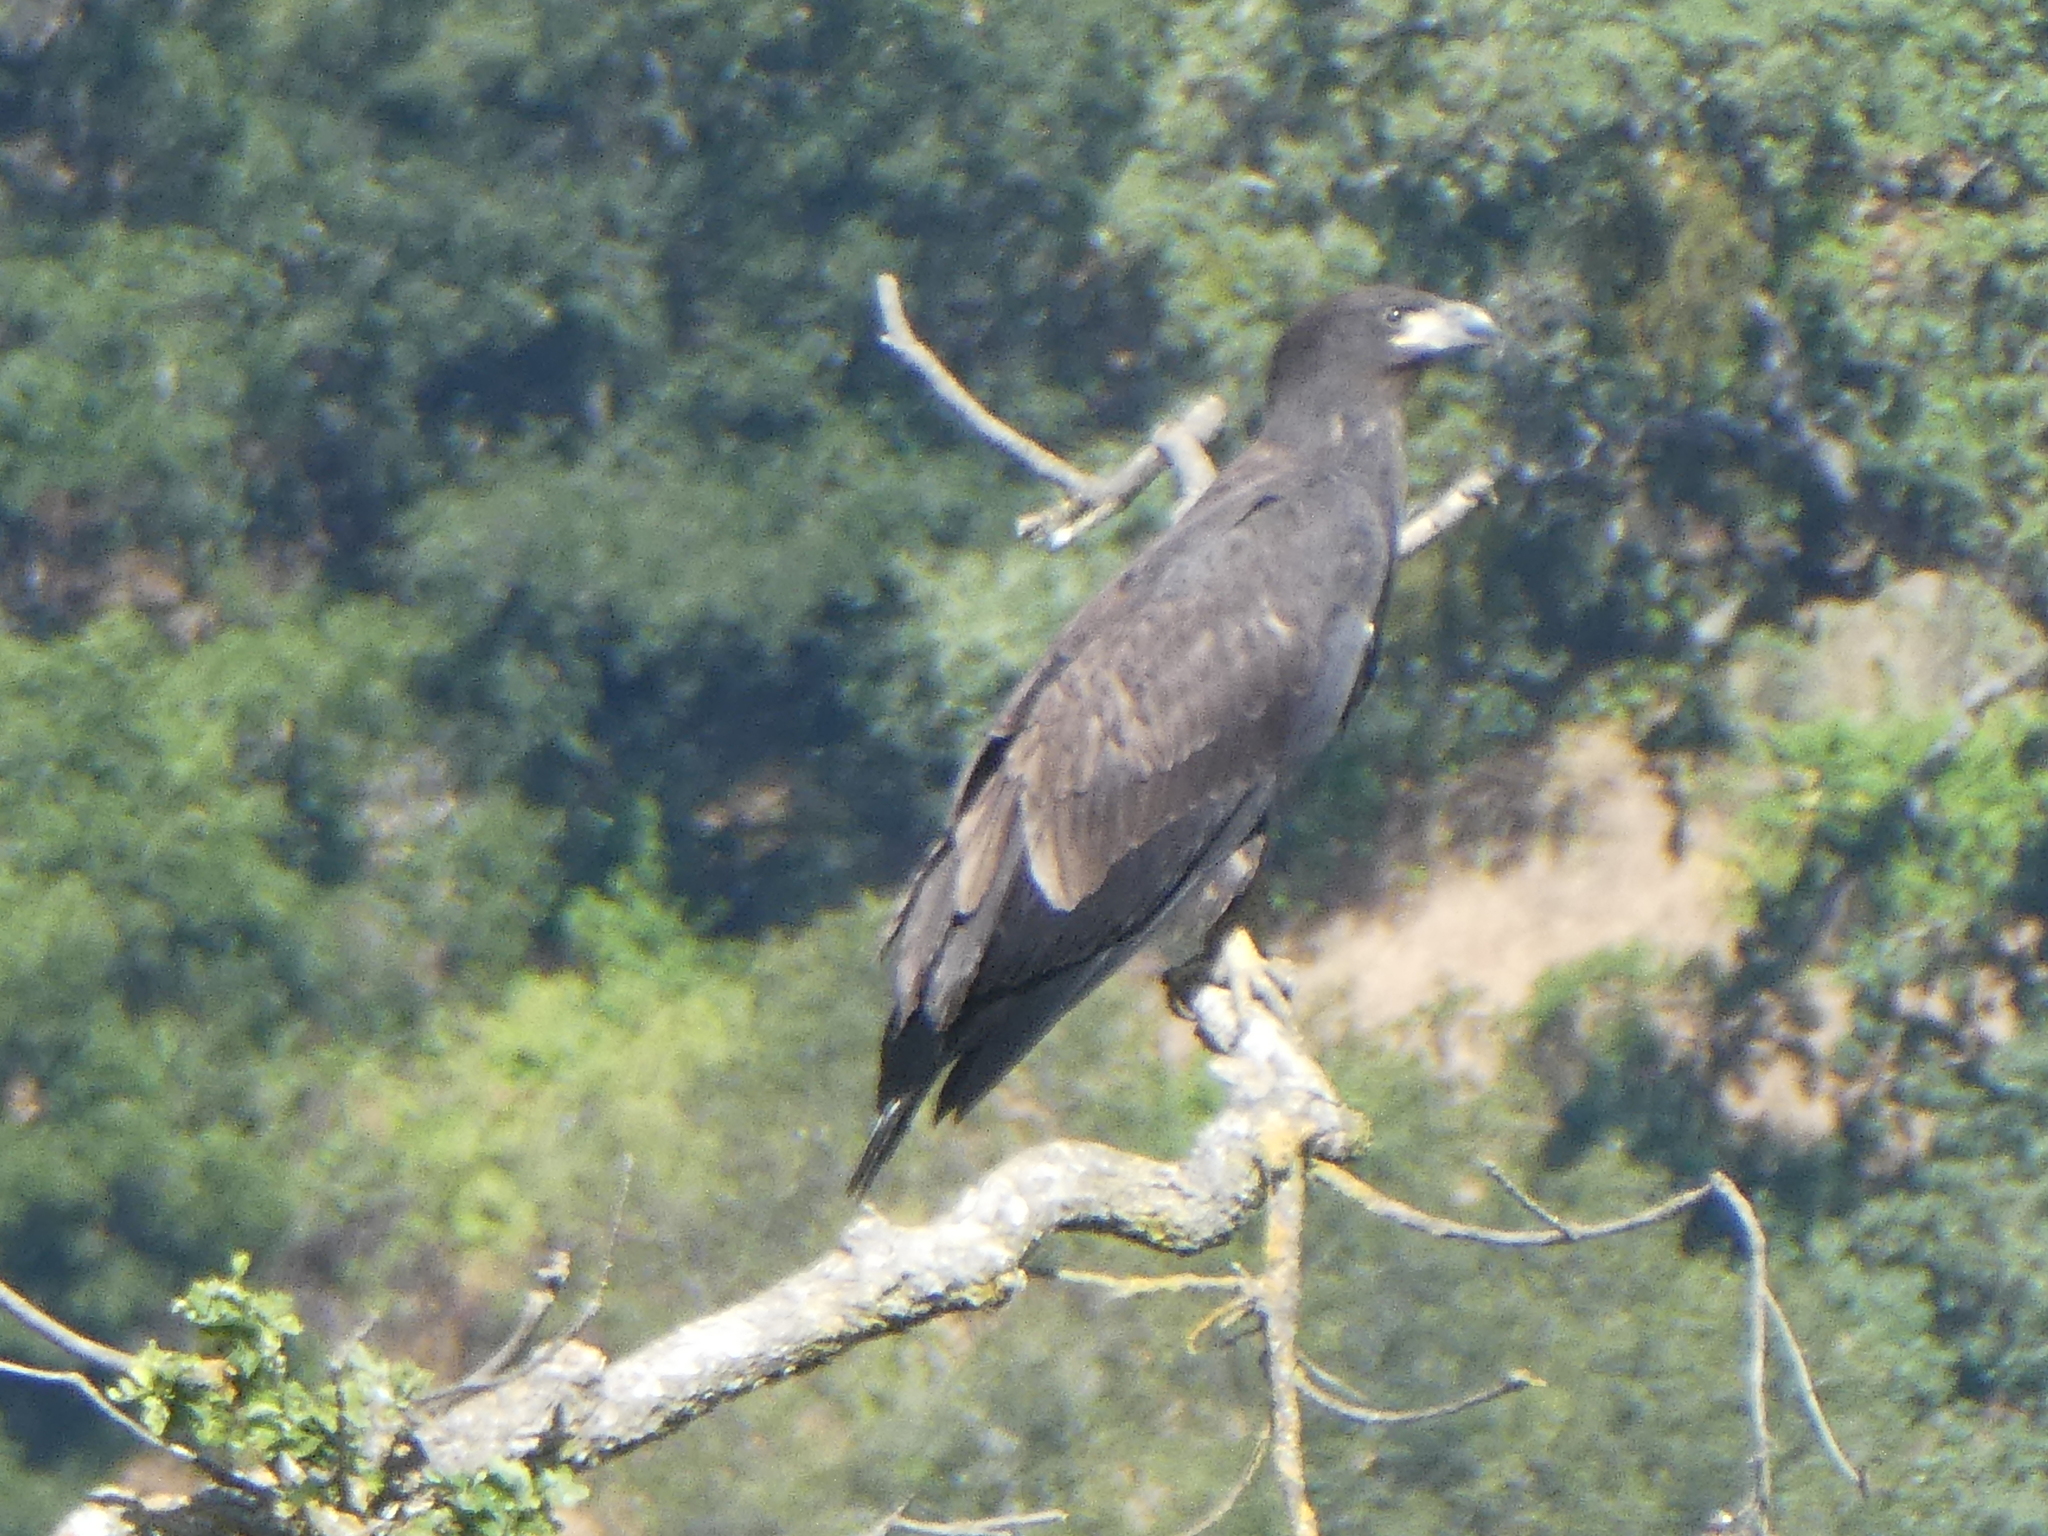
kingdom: Animalia
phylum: Chordata
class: Aves
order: Accipitriformes
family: Accipitridae
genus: Haliaeetus
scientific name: Haliaeetus leucocephalus
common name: Bald eagle
